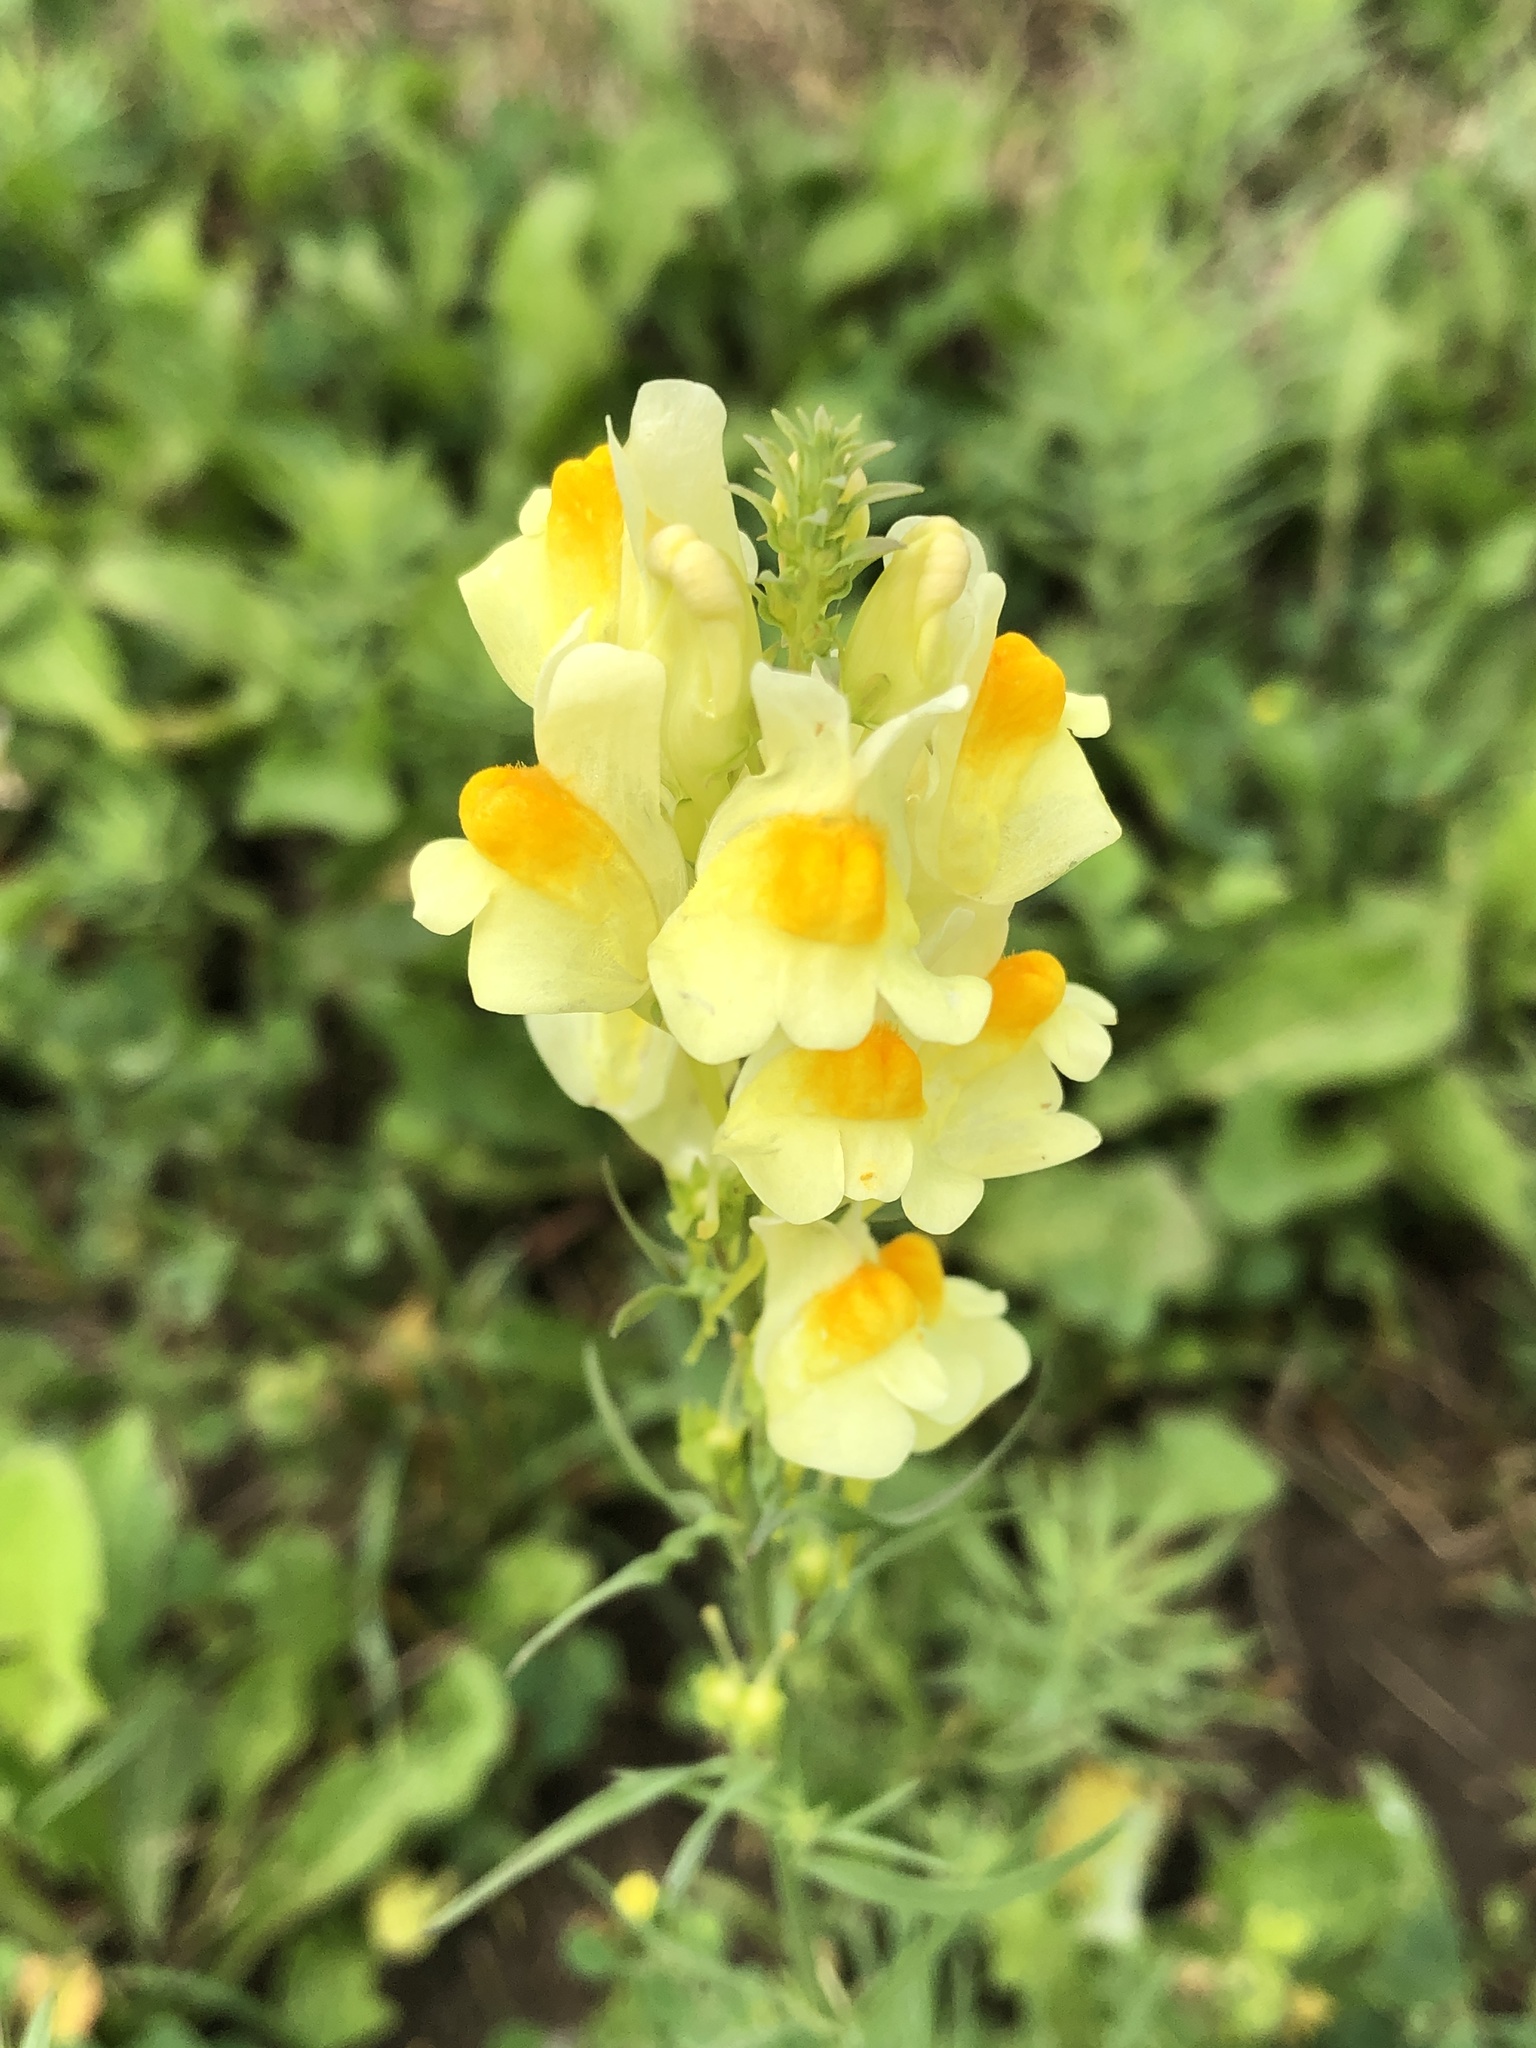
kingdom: Plantae
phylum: Tracheophyta
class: Magnoliopsida
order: Lamiales
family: Plantaginaceae
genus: Linaria
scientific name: Linaria vulgaris
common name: Butter and eggs
